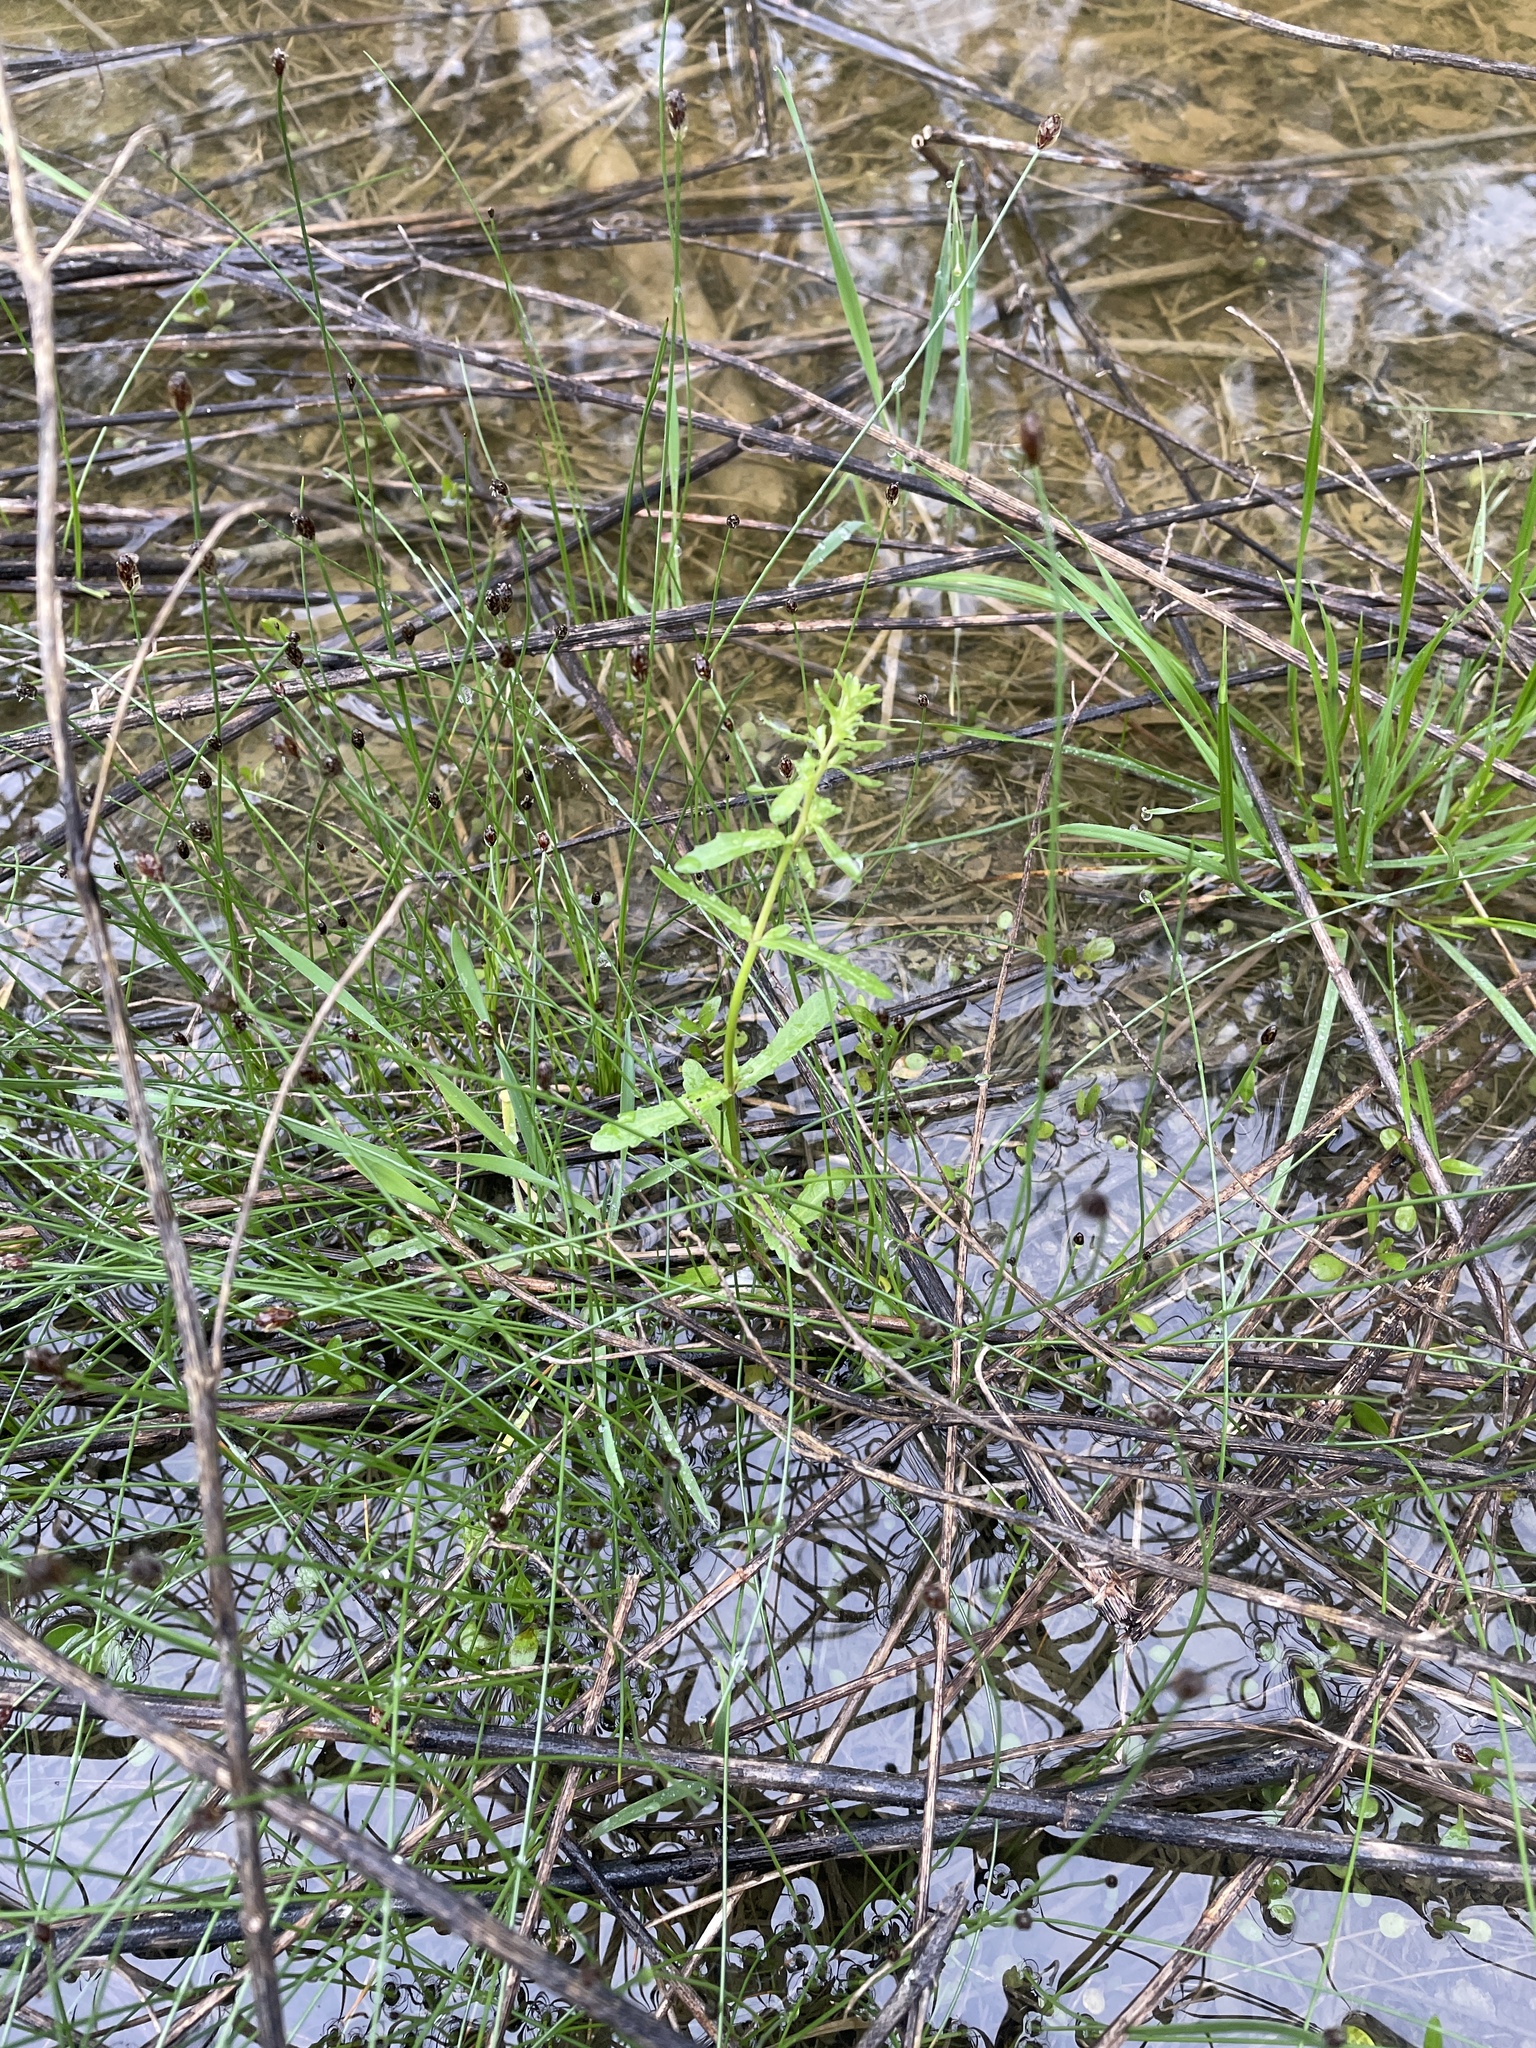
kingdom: Plantae
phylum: Tracheophyta
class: Magnoliopsida
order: Lamiales
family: Plantaginaceae
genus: Veronica
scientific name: Veronica peregrina
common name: Neckweed
